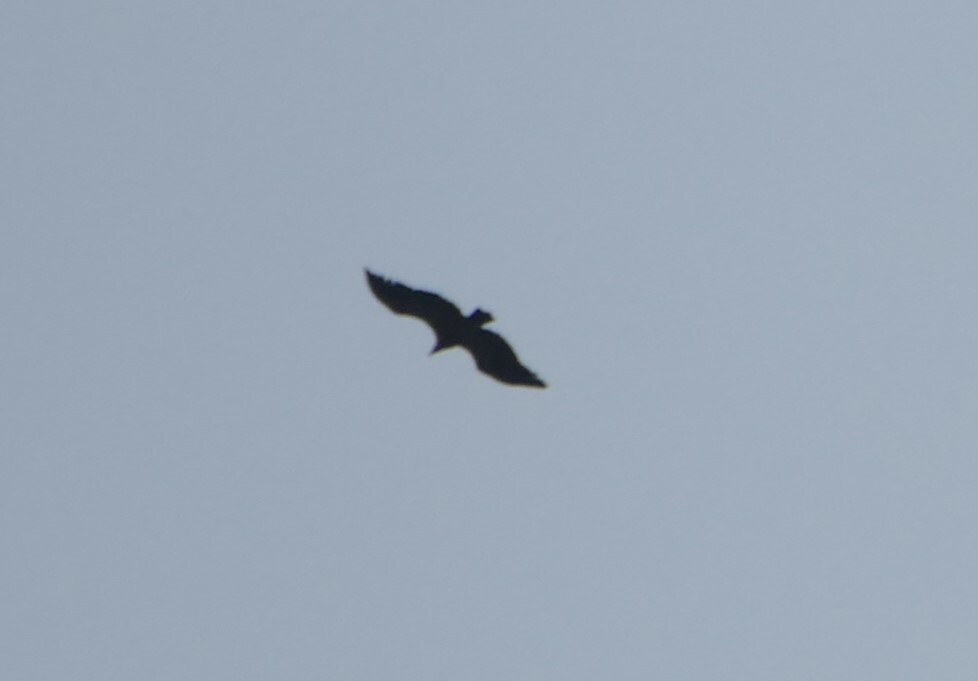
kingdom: Animalia
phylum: Chordata
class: Aves
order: Accipitriformes
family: Accipitridae
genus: Gyps
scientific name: Gyps fulvus
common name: Griffon vulture
